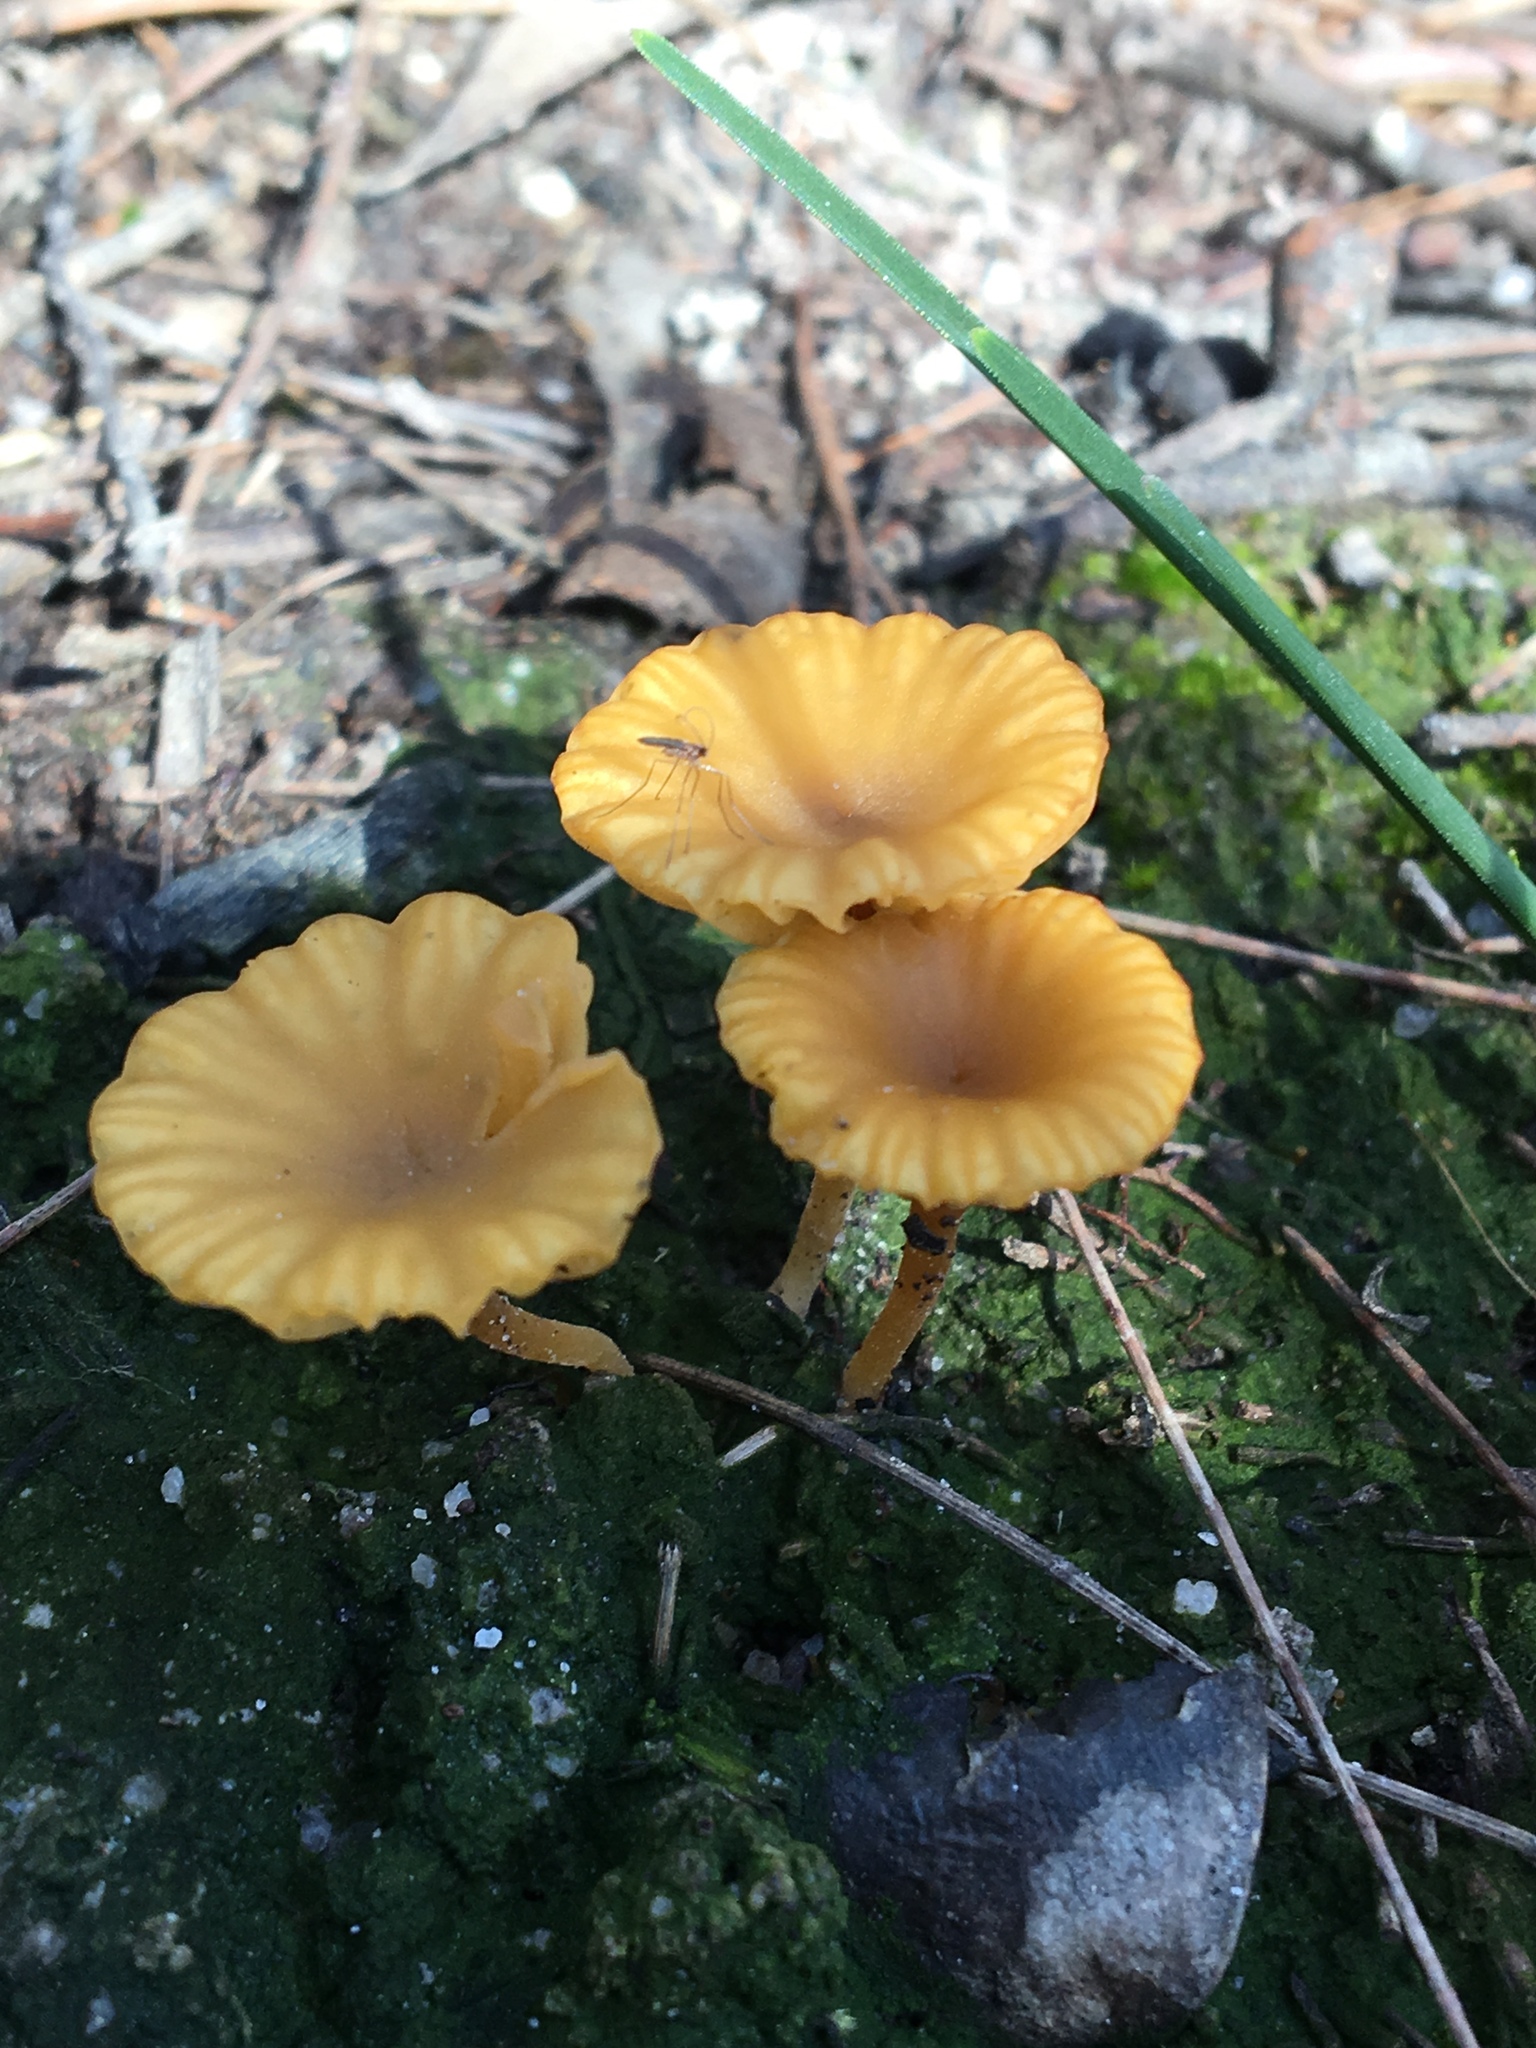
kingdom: Fungi
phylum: Basidiomycota
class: Agaricomycetes
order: Agaricales
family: Hygrophoraceae
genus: Lichenomphalia
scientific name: Lichenomphalia chromacea
